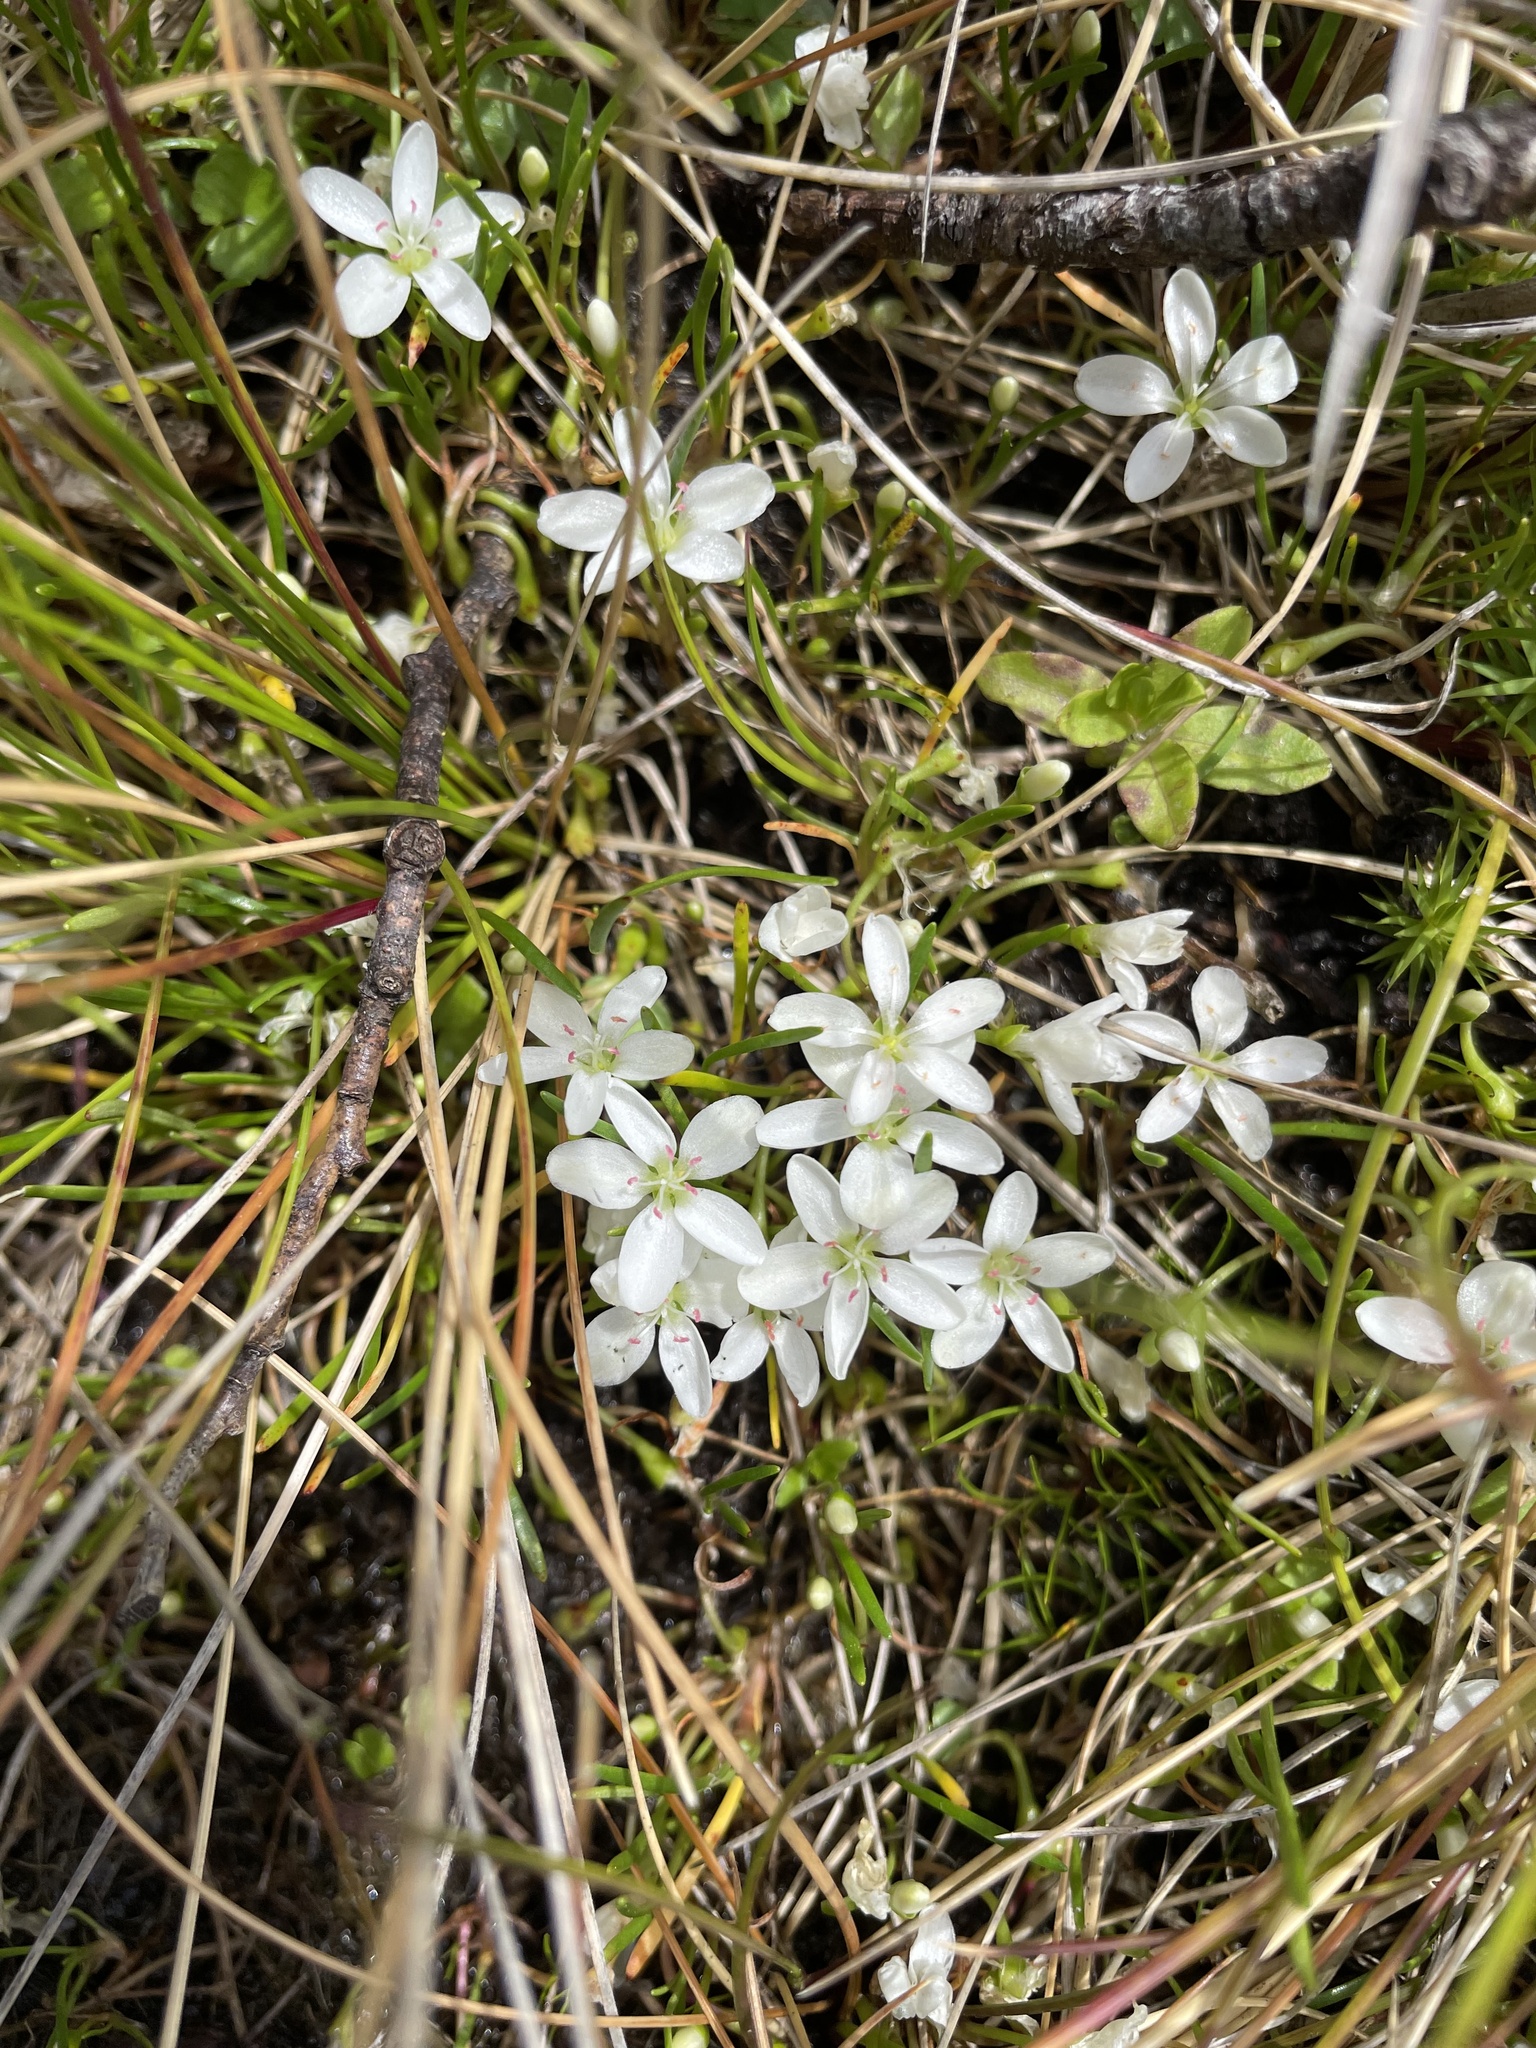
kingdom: Plantae
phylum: Tracheophyta
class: Magnoliopsida
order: Caryophyllales
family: Montiaceae
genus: Montia
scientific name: Montia australasica
